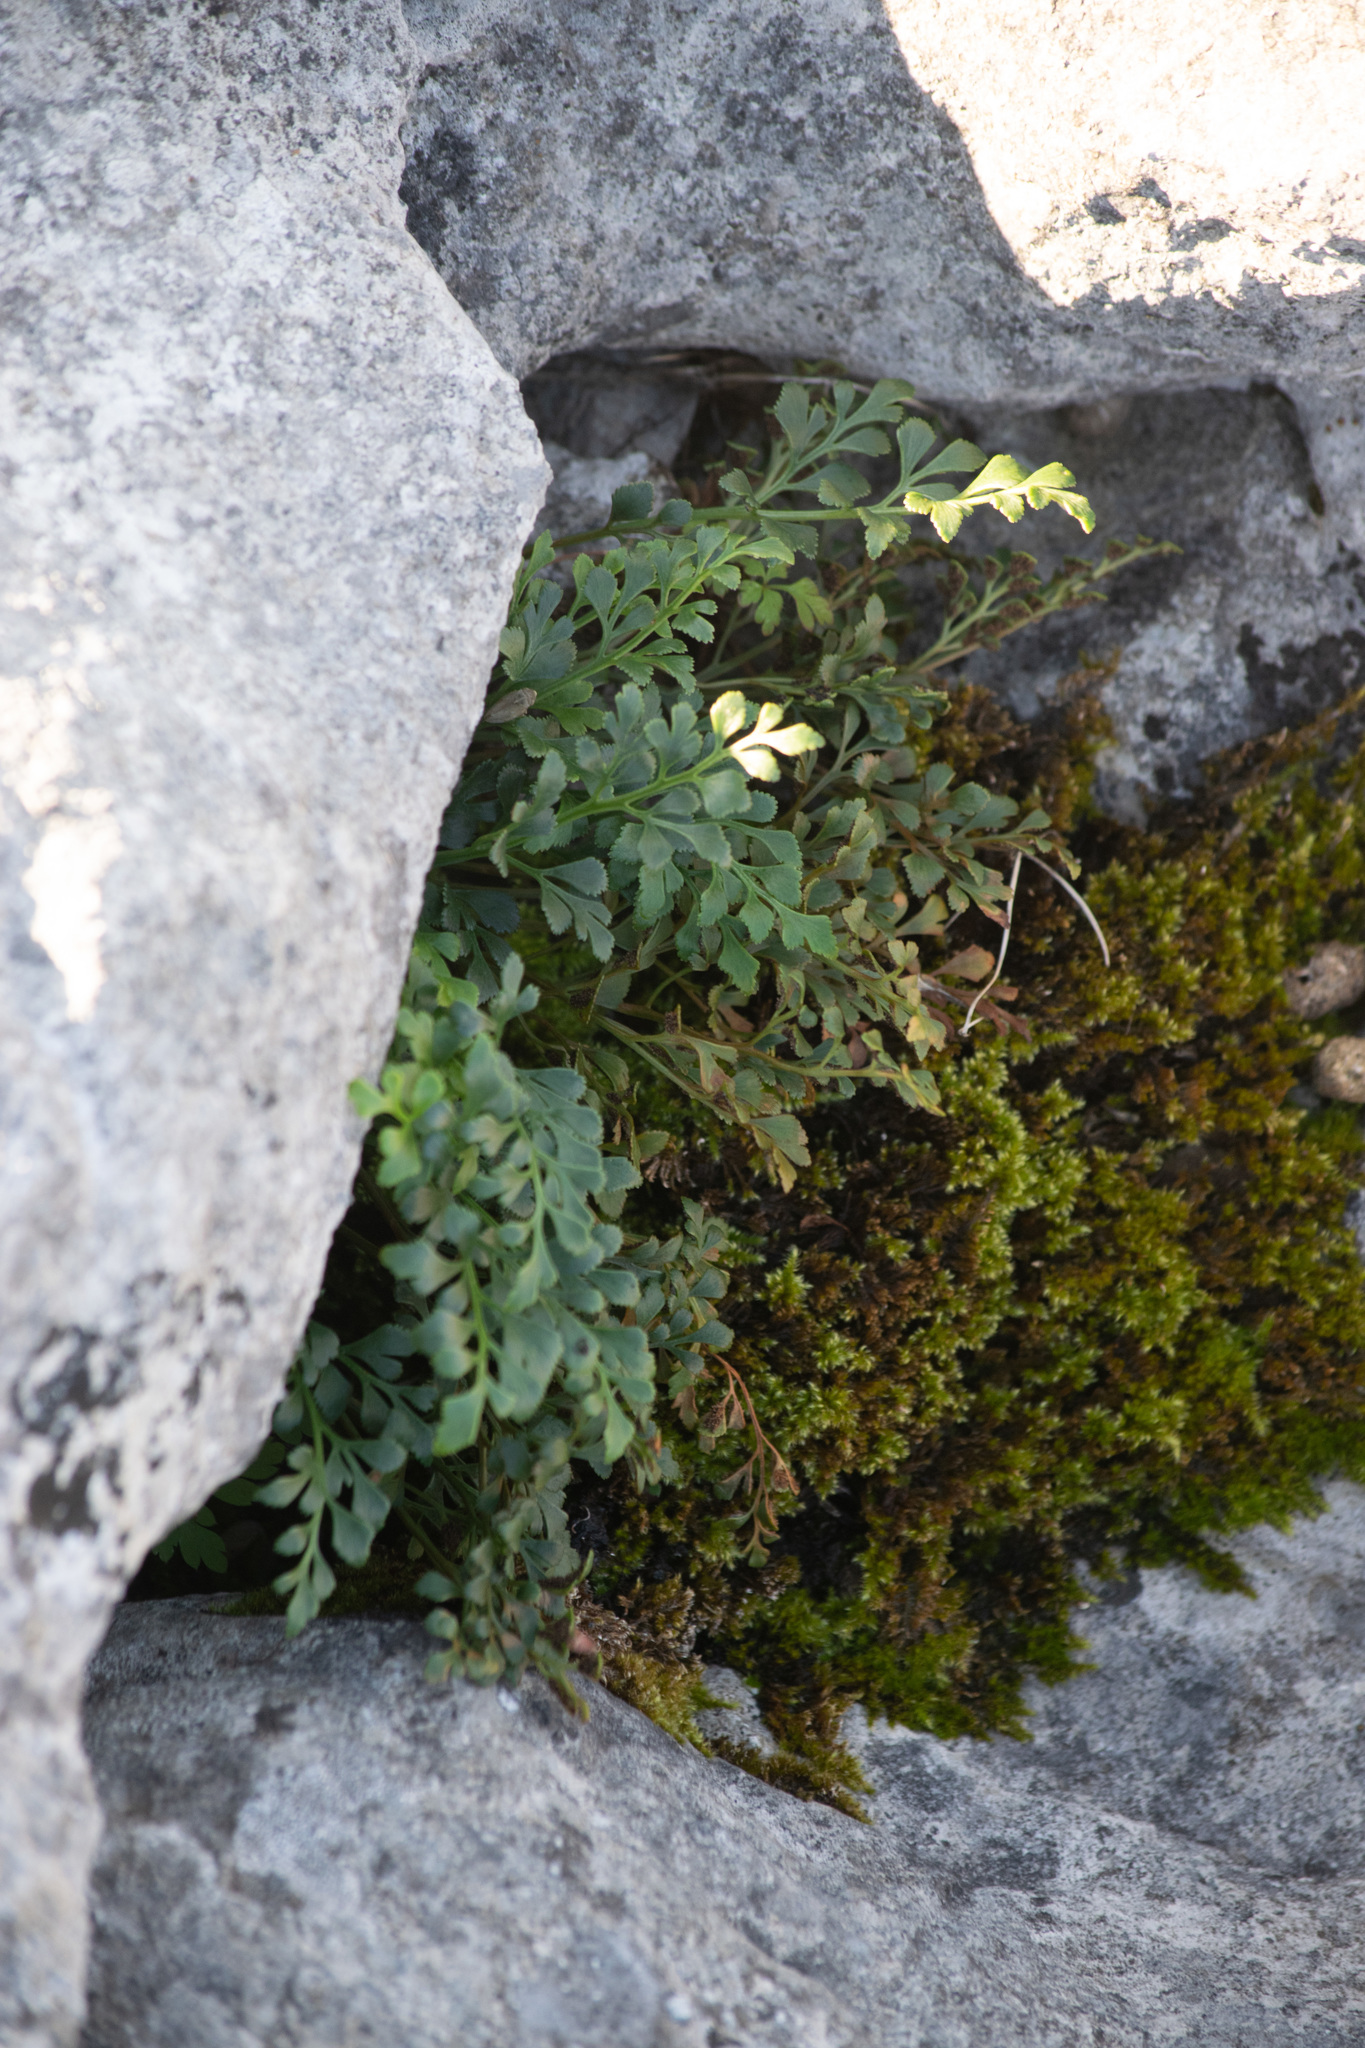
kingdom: Plantae
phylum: Tracheophyta
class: Polypodiopsida
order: Polypodiales
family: Aspleniaceae
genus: Asplenium
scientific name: Asplenium ruta-muraria
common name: Wall-rue
